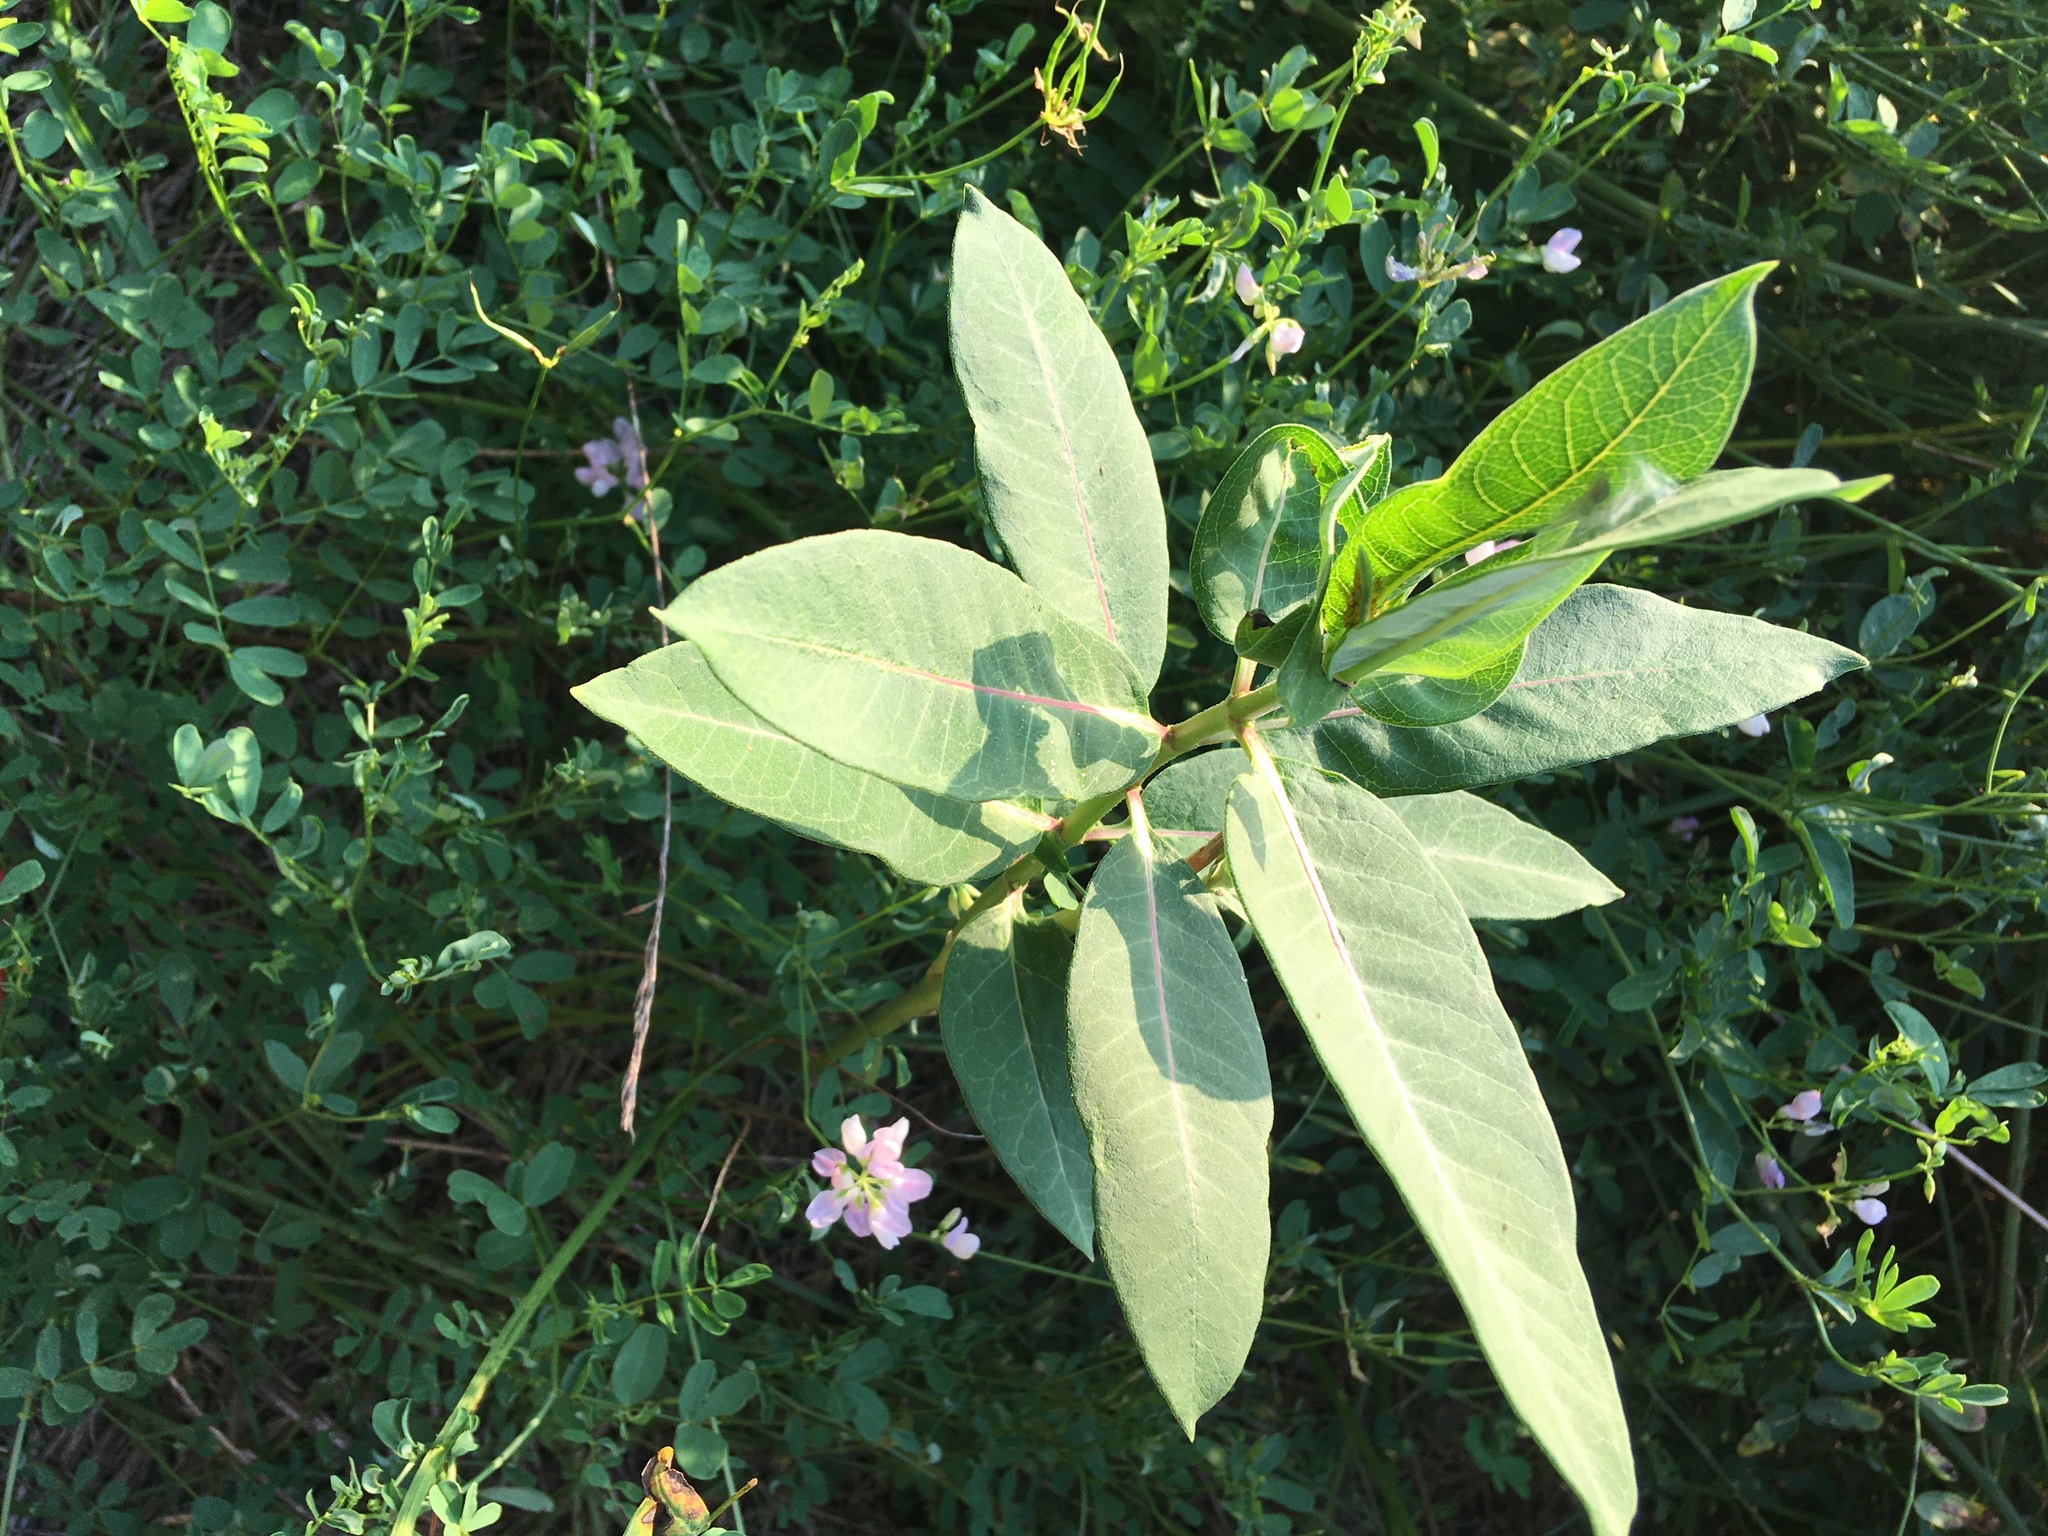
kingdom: Plantae
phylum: Tracheophyta
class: Magnoliopsida
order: Gentianales
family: Apocynaceae
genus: Asclepias
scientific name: Asclepias syriaca
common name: Common milkweed
